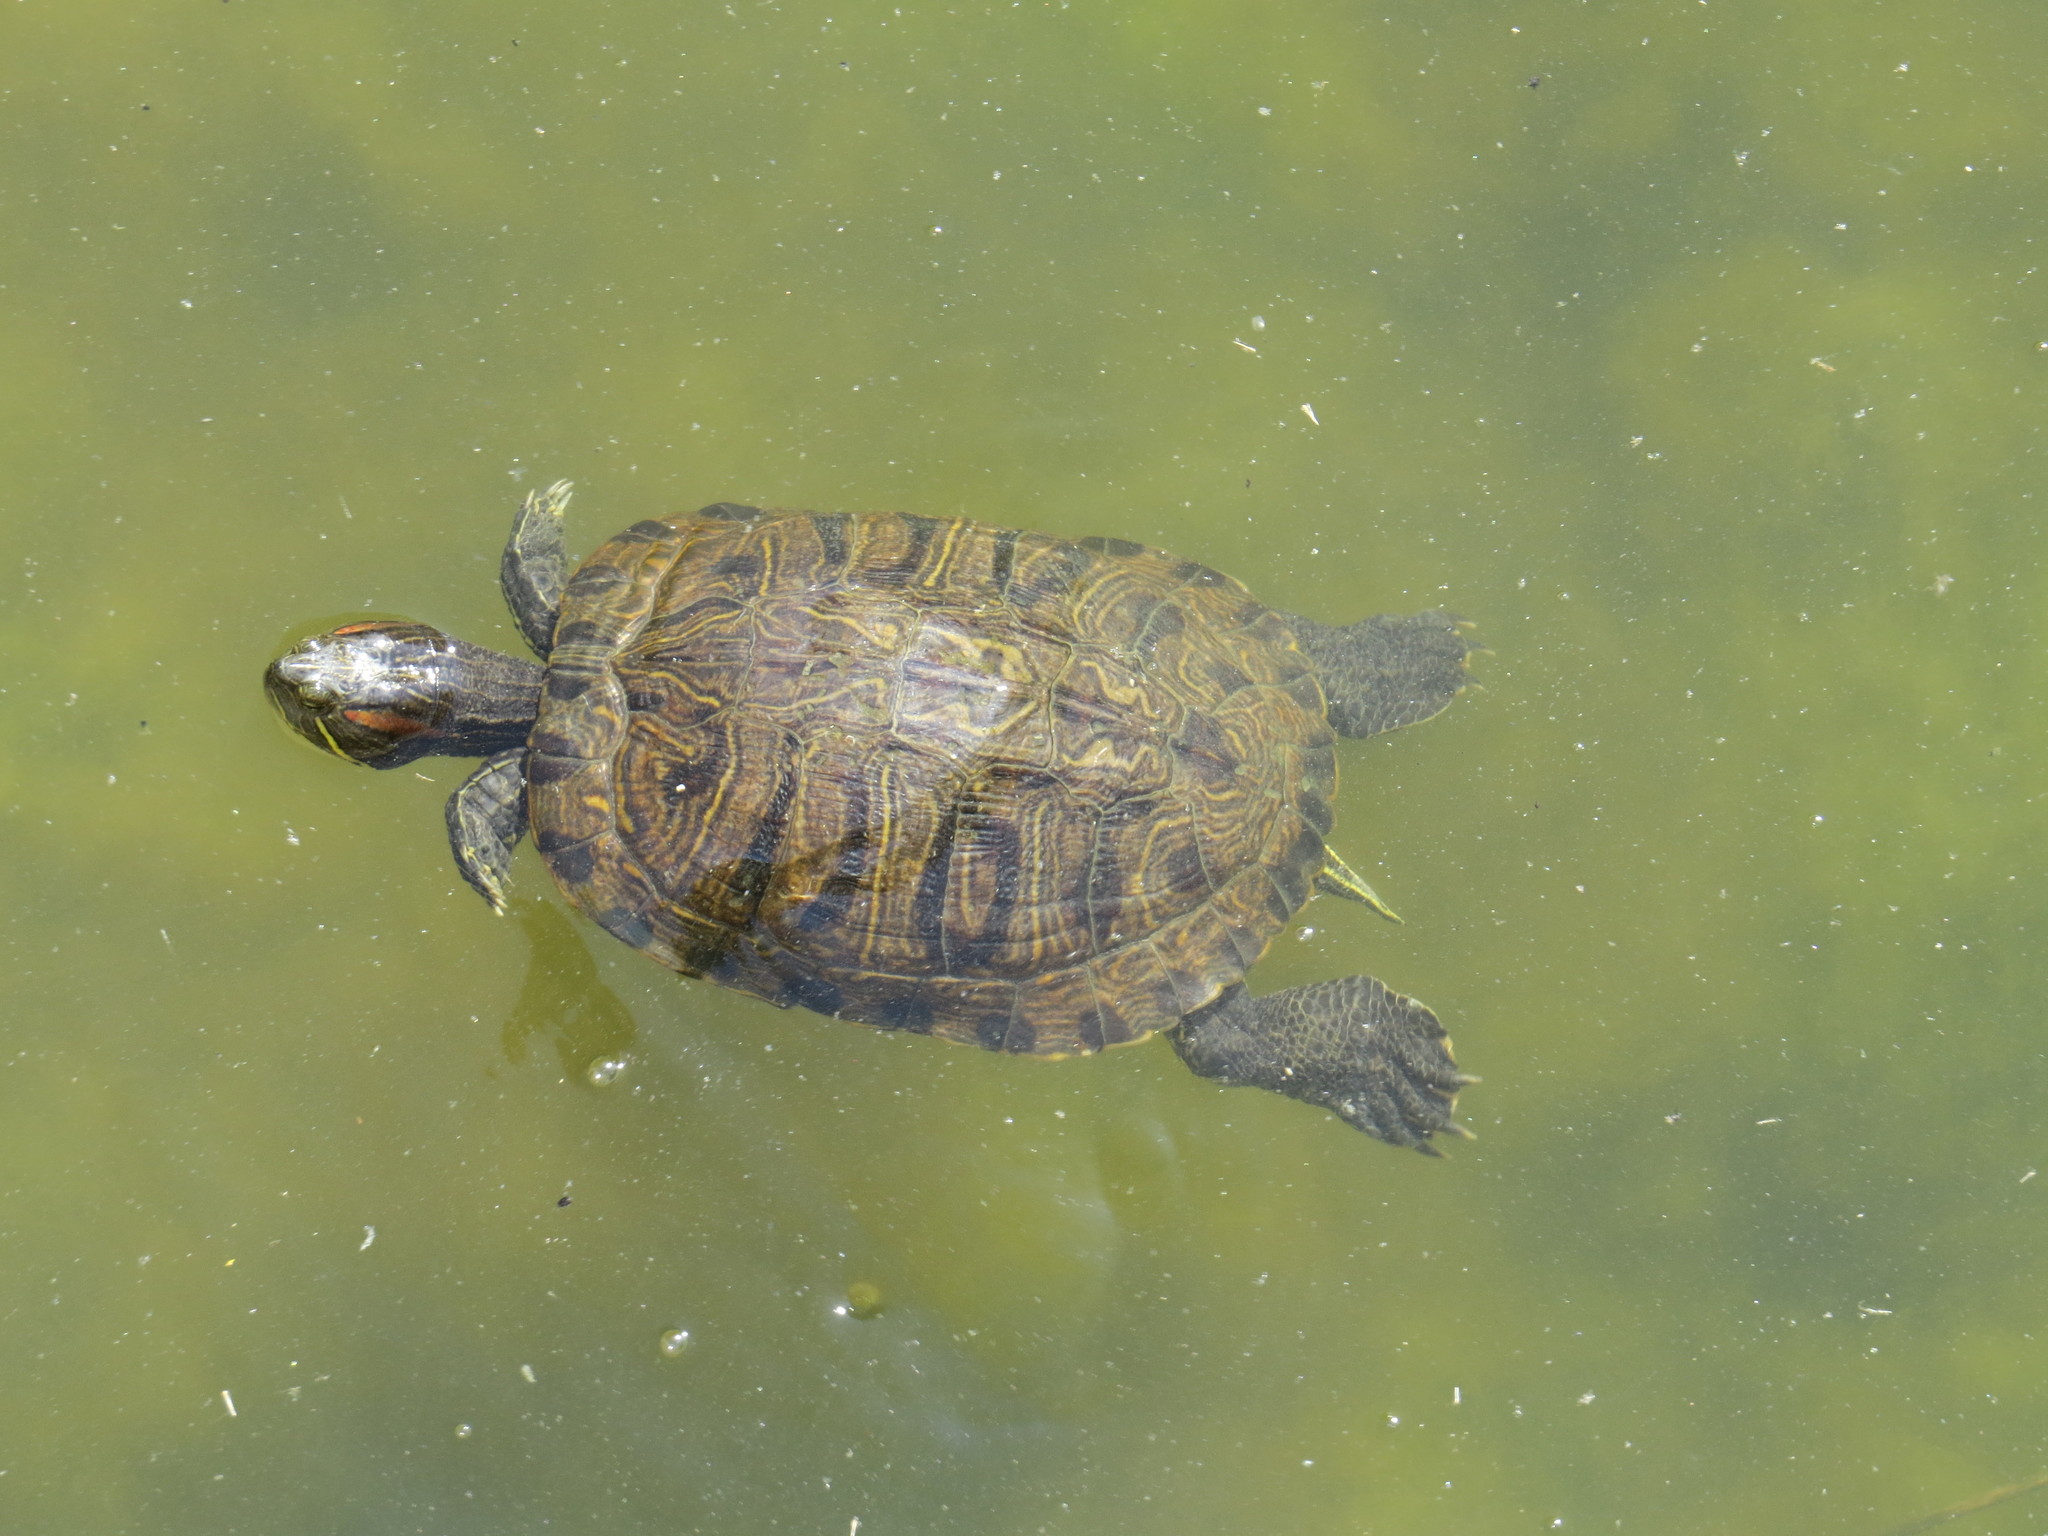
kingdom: Animalia
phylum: Chordata
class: Testudines
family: Emydidae
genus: Trachemys
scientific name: Trachemys scripta
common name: Slider
